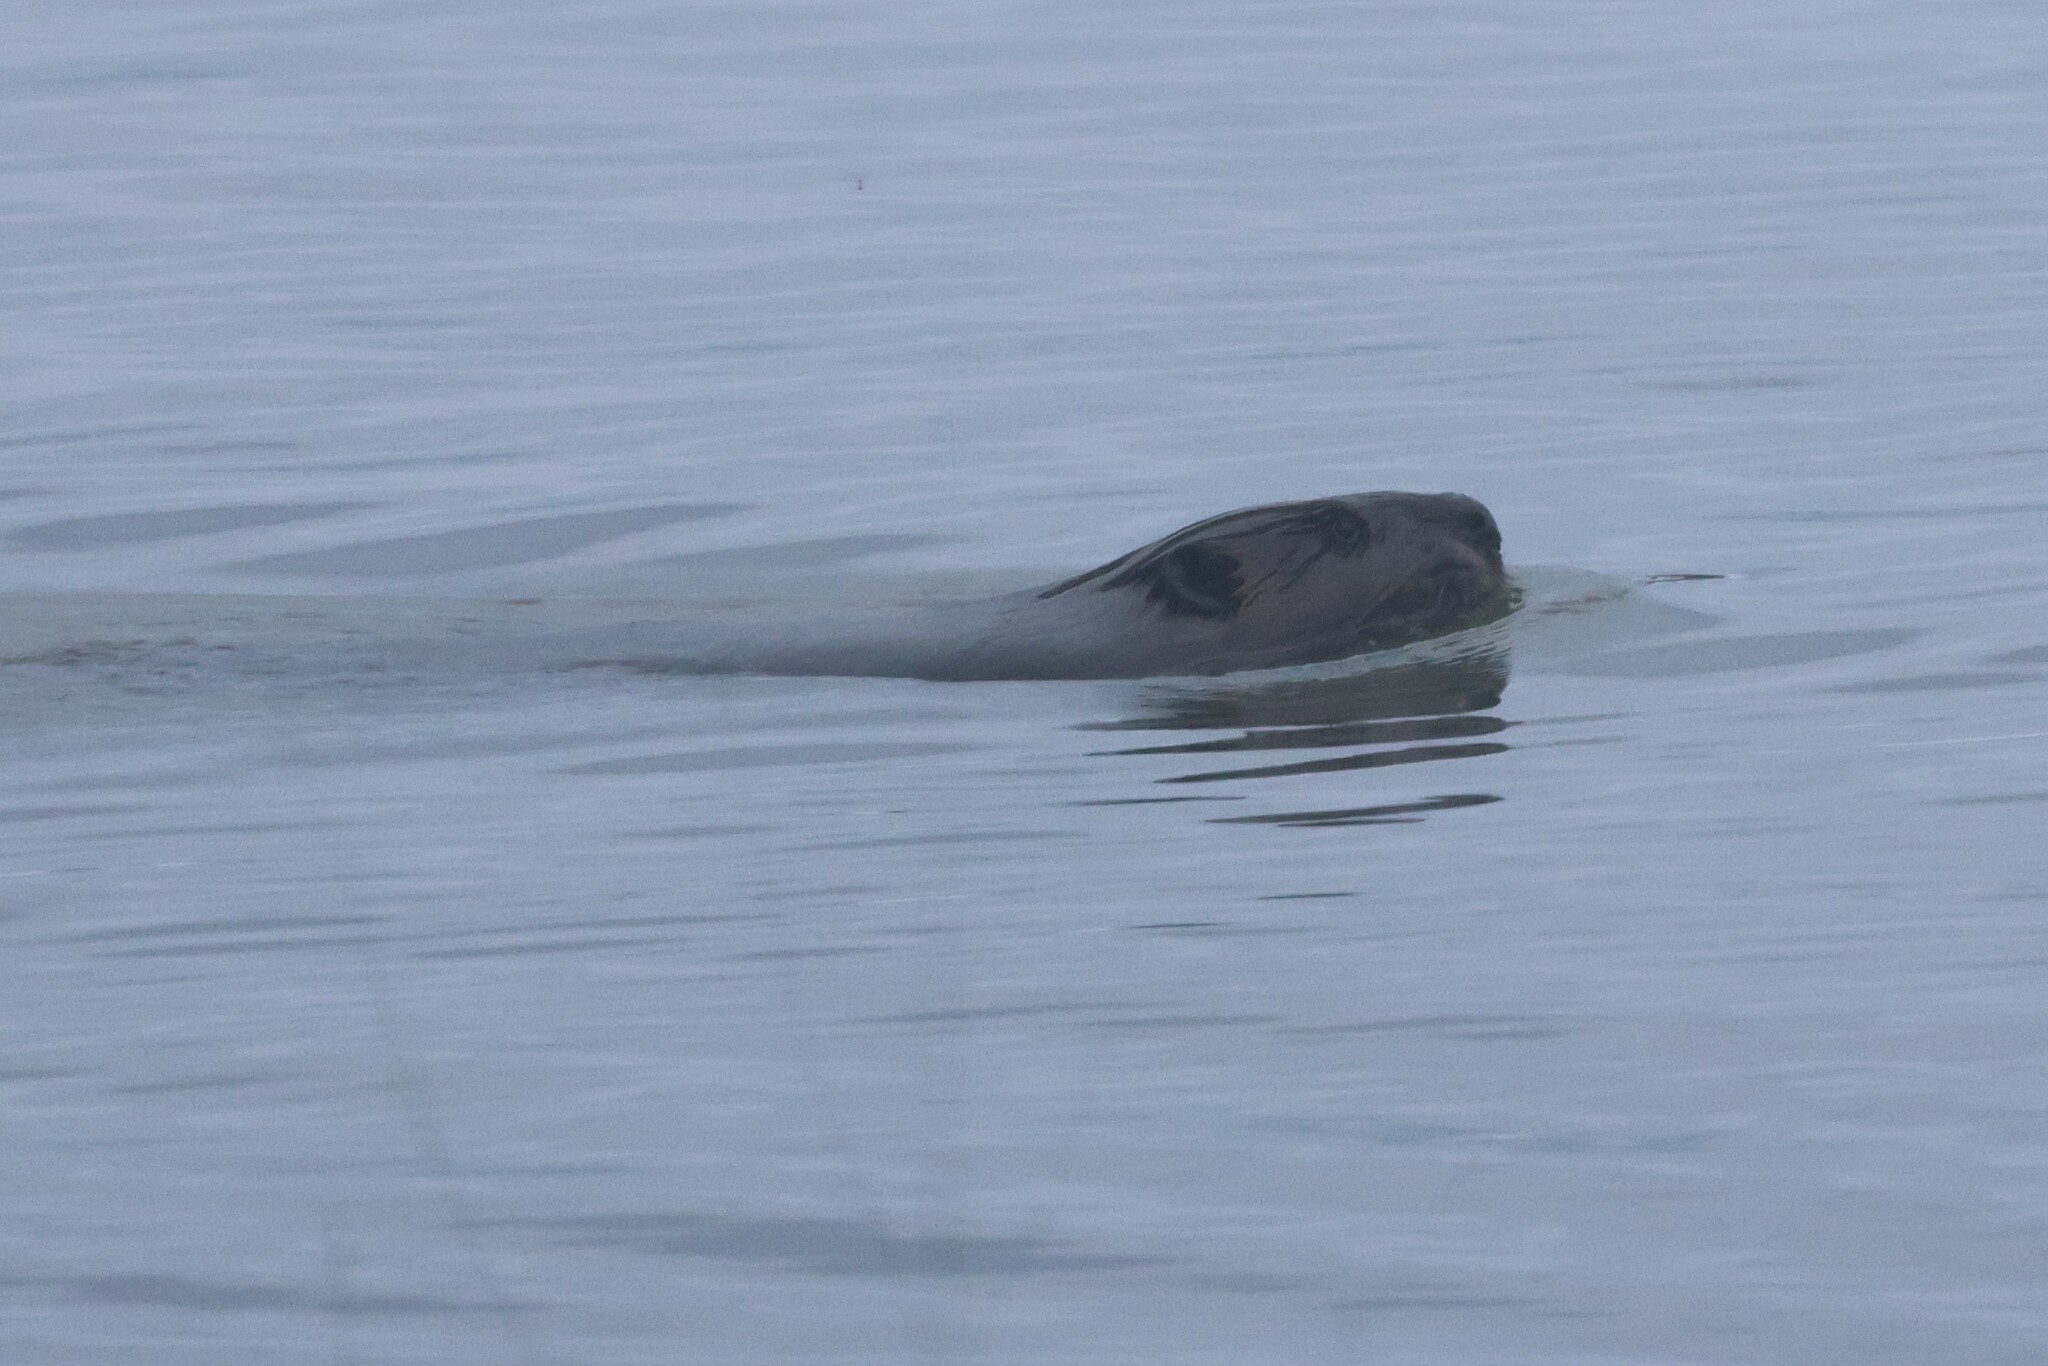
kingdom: Animalia
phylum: Chordata
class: Mammalia
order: Rodentia
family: Castoridae
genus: Castor
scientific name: Castor canadensis
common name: American beaver
